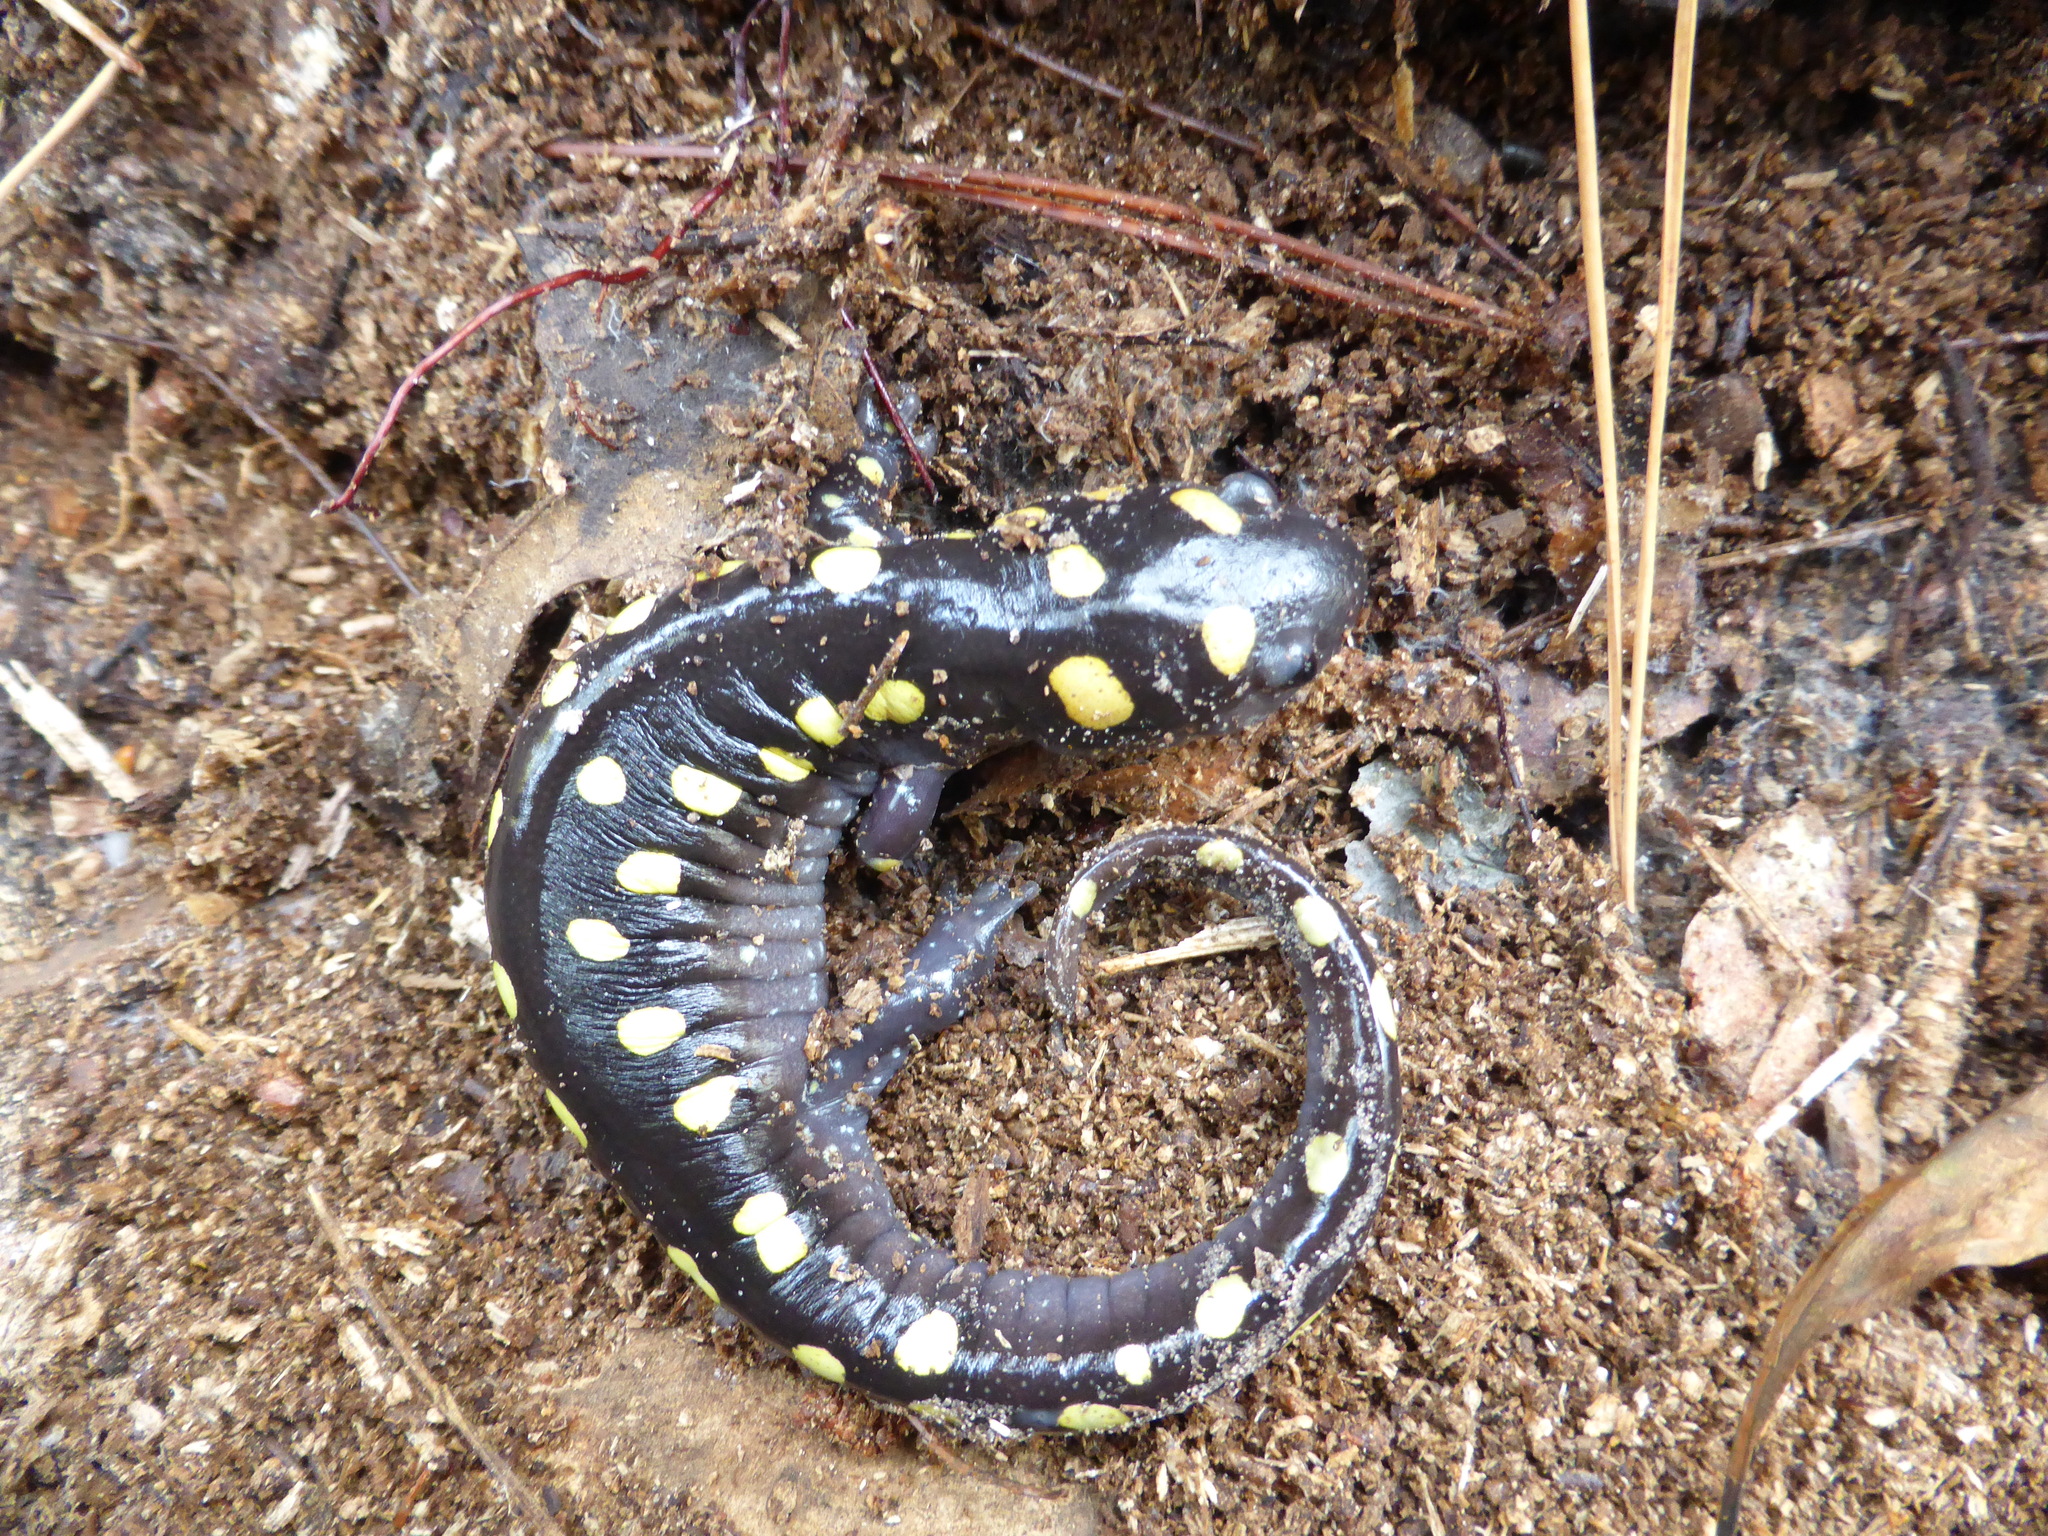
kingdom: Animalia
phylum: Chordata
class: Amphibia
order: Caudata
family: Ambystomatidae
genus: Ambystoma
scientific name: Ambystoma maculatum
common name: Spotted salamander
